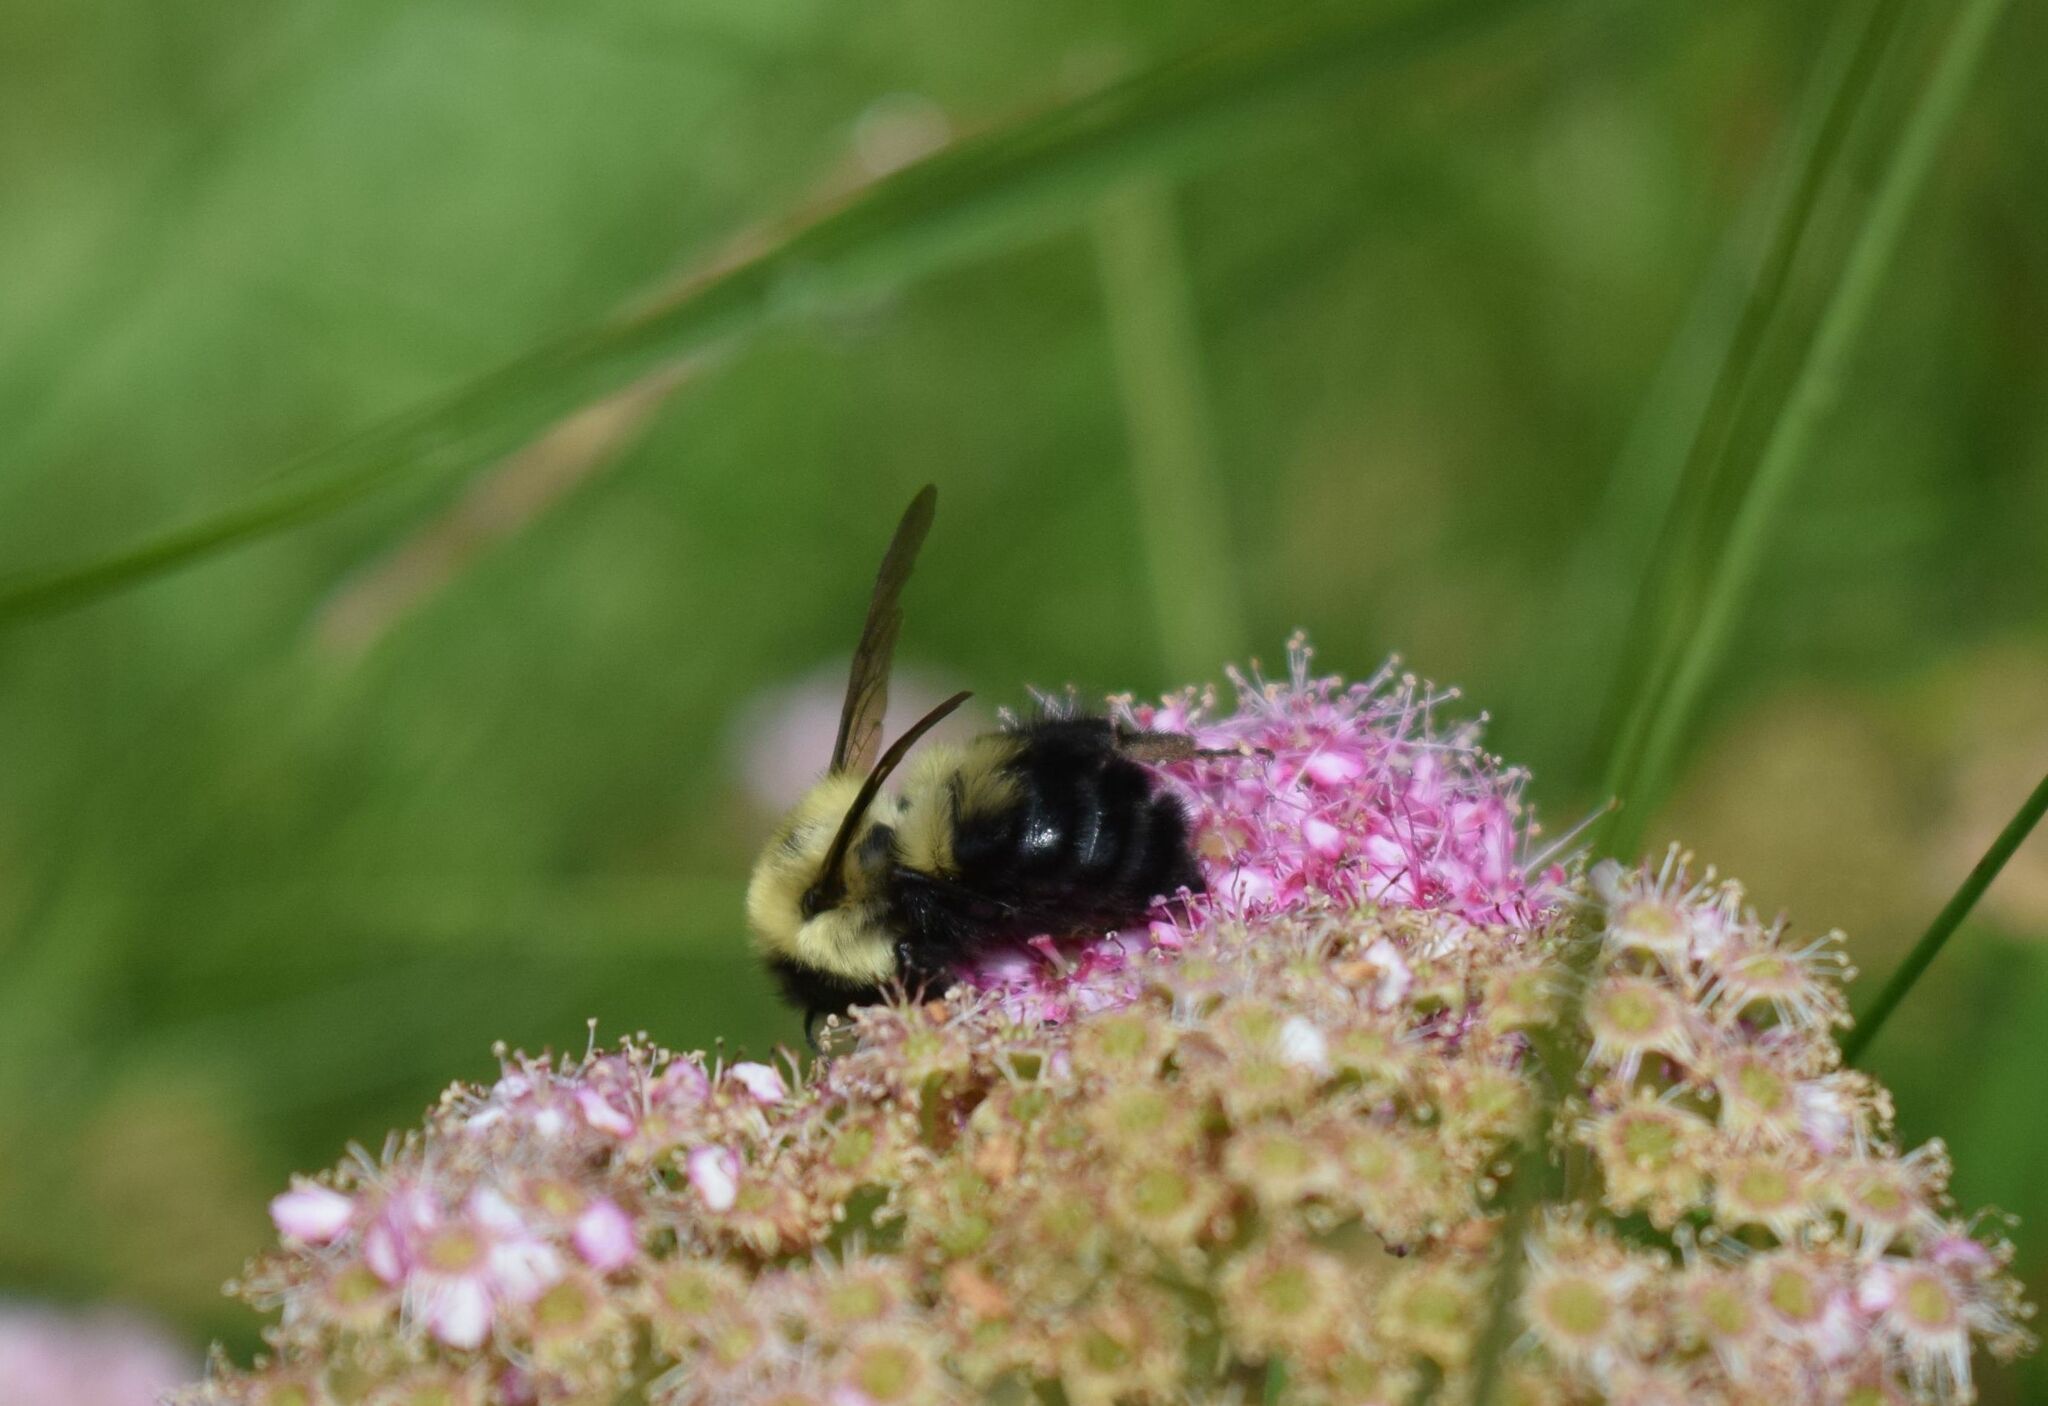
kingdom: Animalia
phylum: Arthropoda
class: Insecta
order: Hymenoptera
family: Apidae
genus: Bombus
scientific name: Bombus bimaculatus
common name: Two-spotted bumble bee
